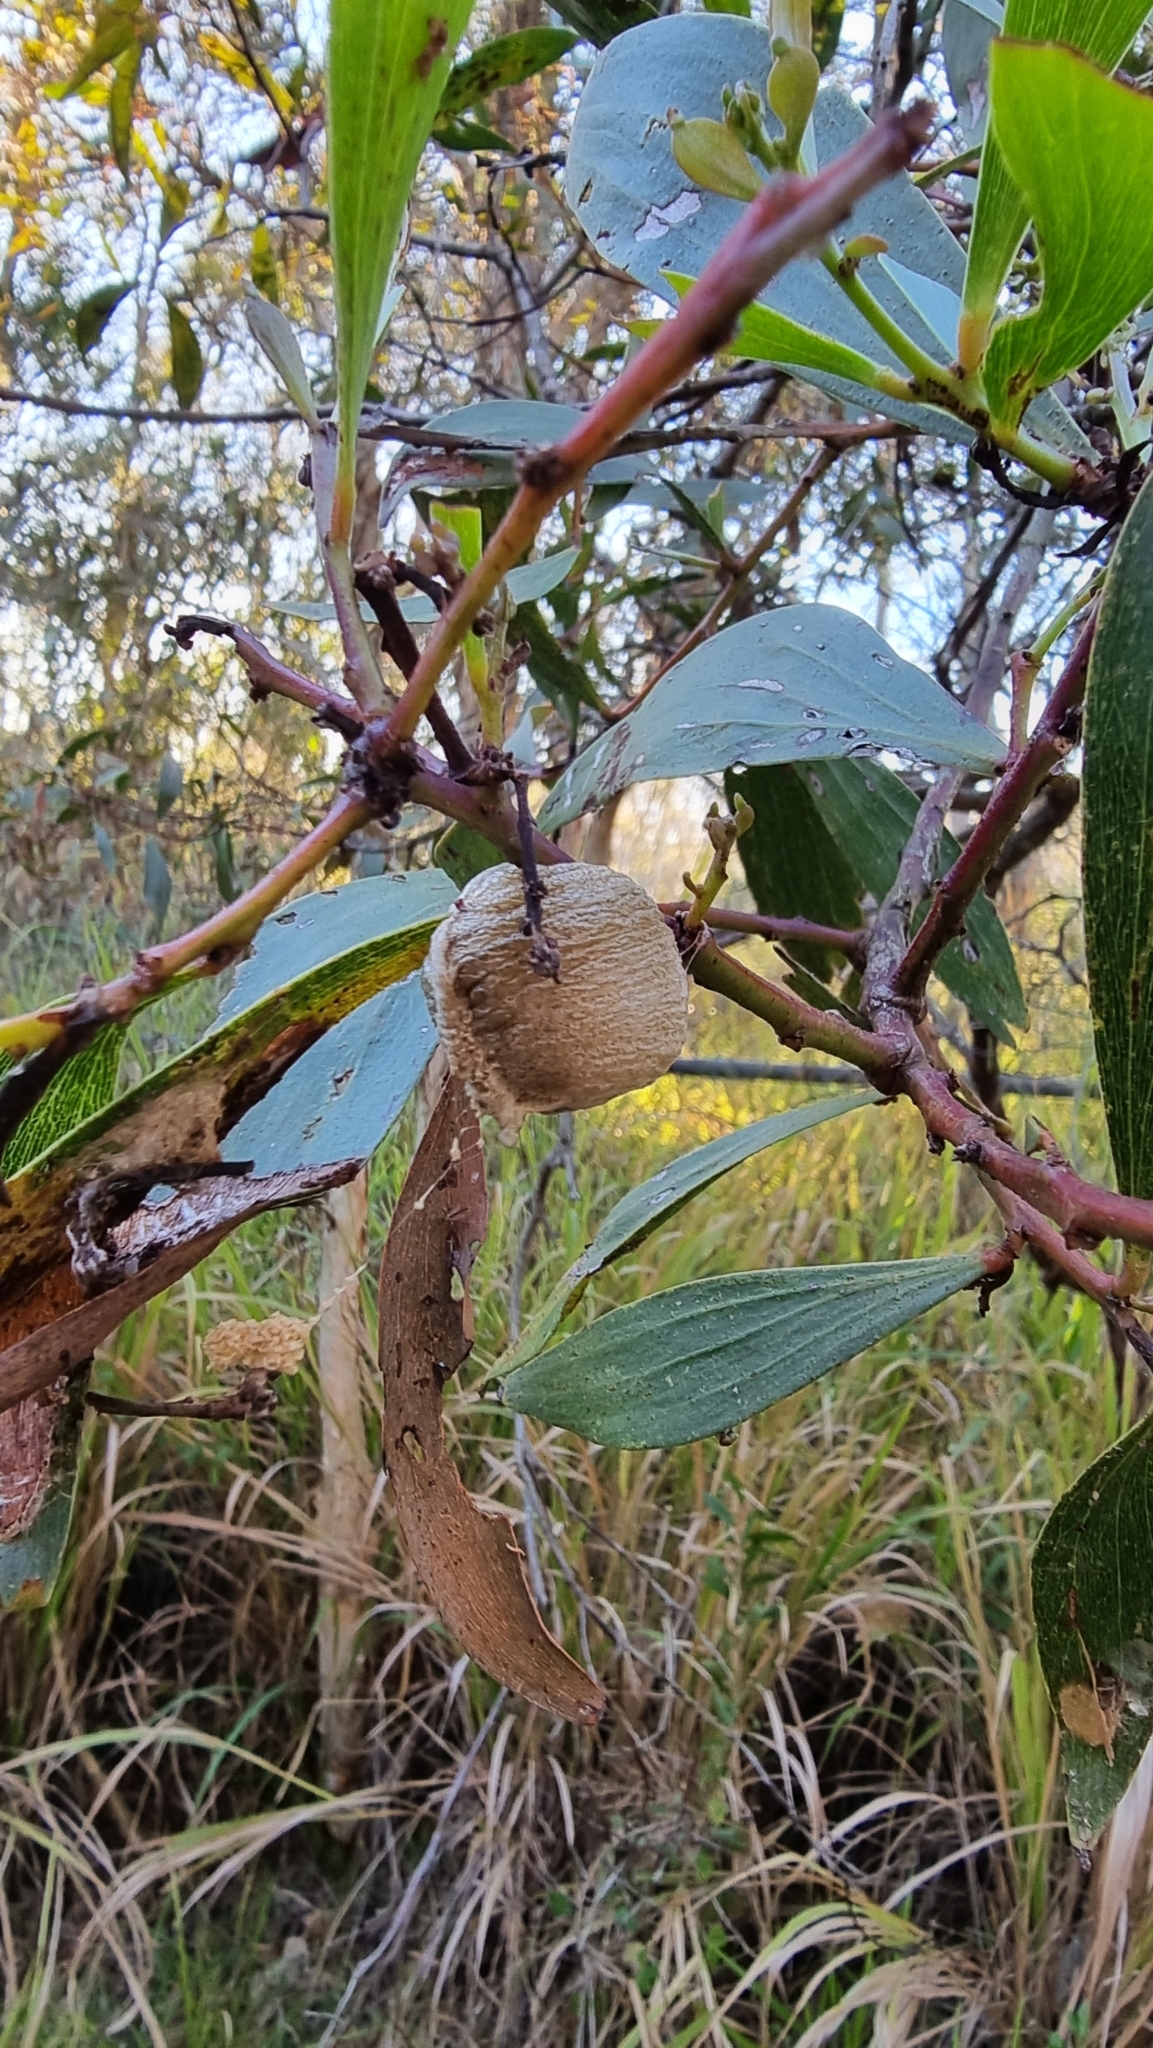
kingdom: Animalia
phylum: Arthropoda
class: Insecta
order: Mantodea
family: Mantidae
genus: Archimantis
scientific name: Archimantis latistyla
